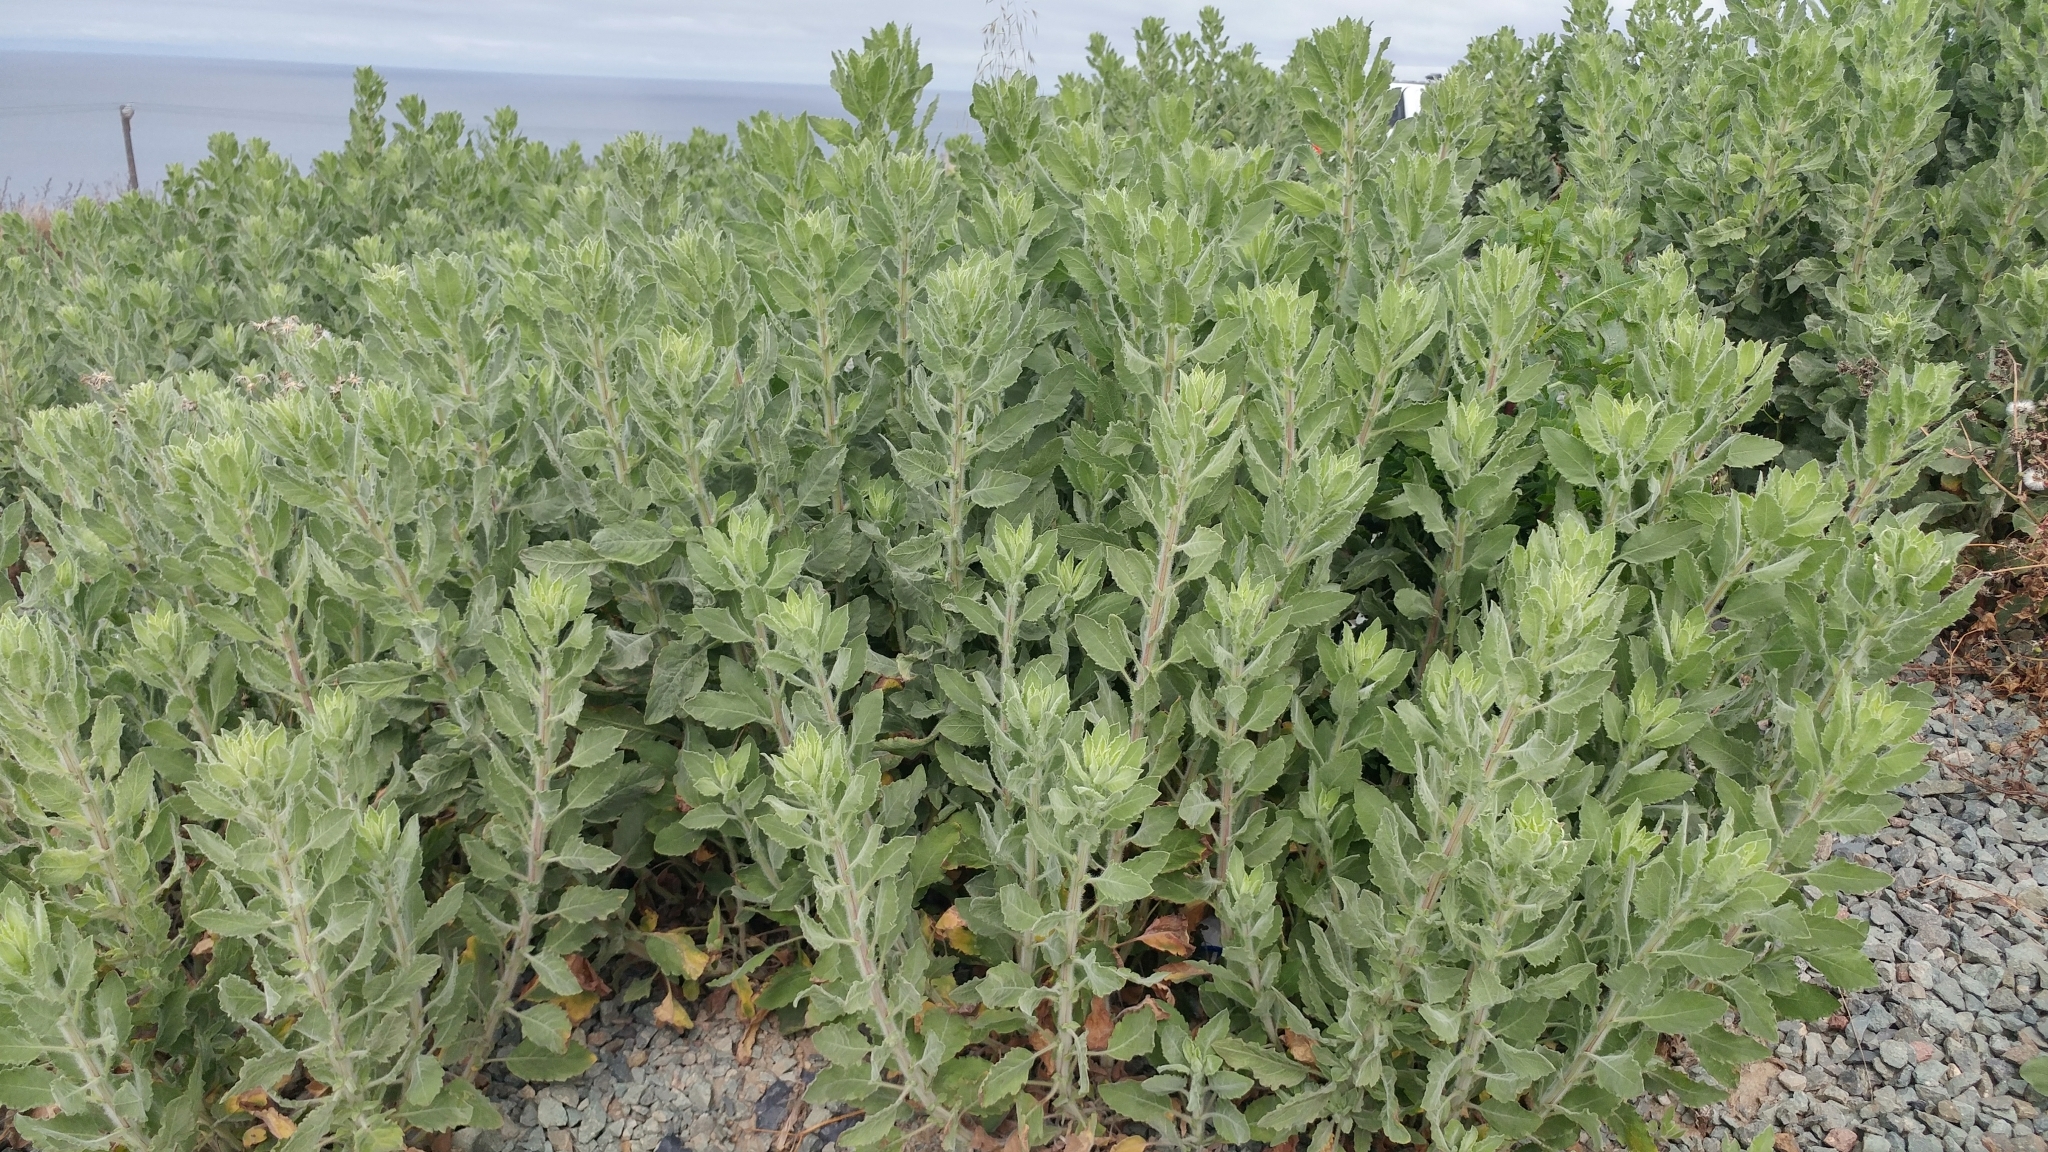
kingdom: Plantae
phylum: Tracheophyta
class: Magnoliopsida
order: Asterales
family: Asteraceae
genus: Heterotheca
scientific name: Heterotheca grandiflora
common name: Telegraphweed
